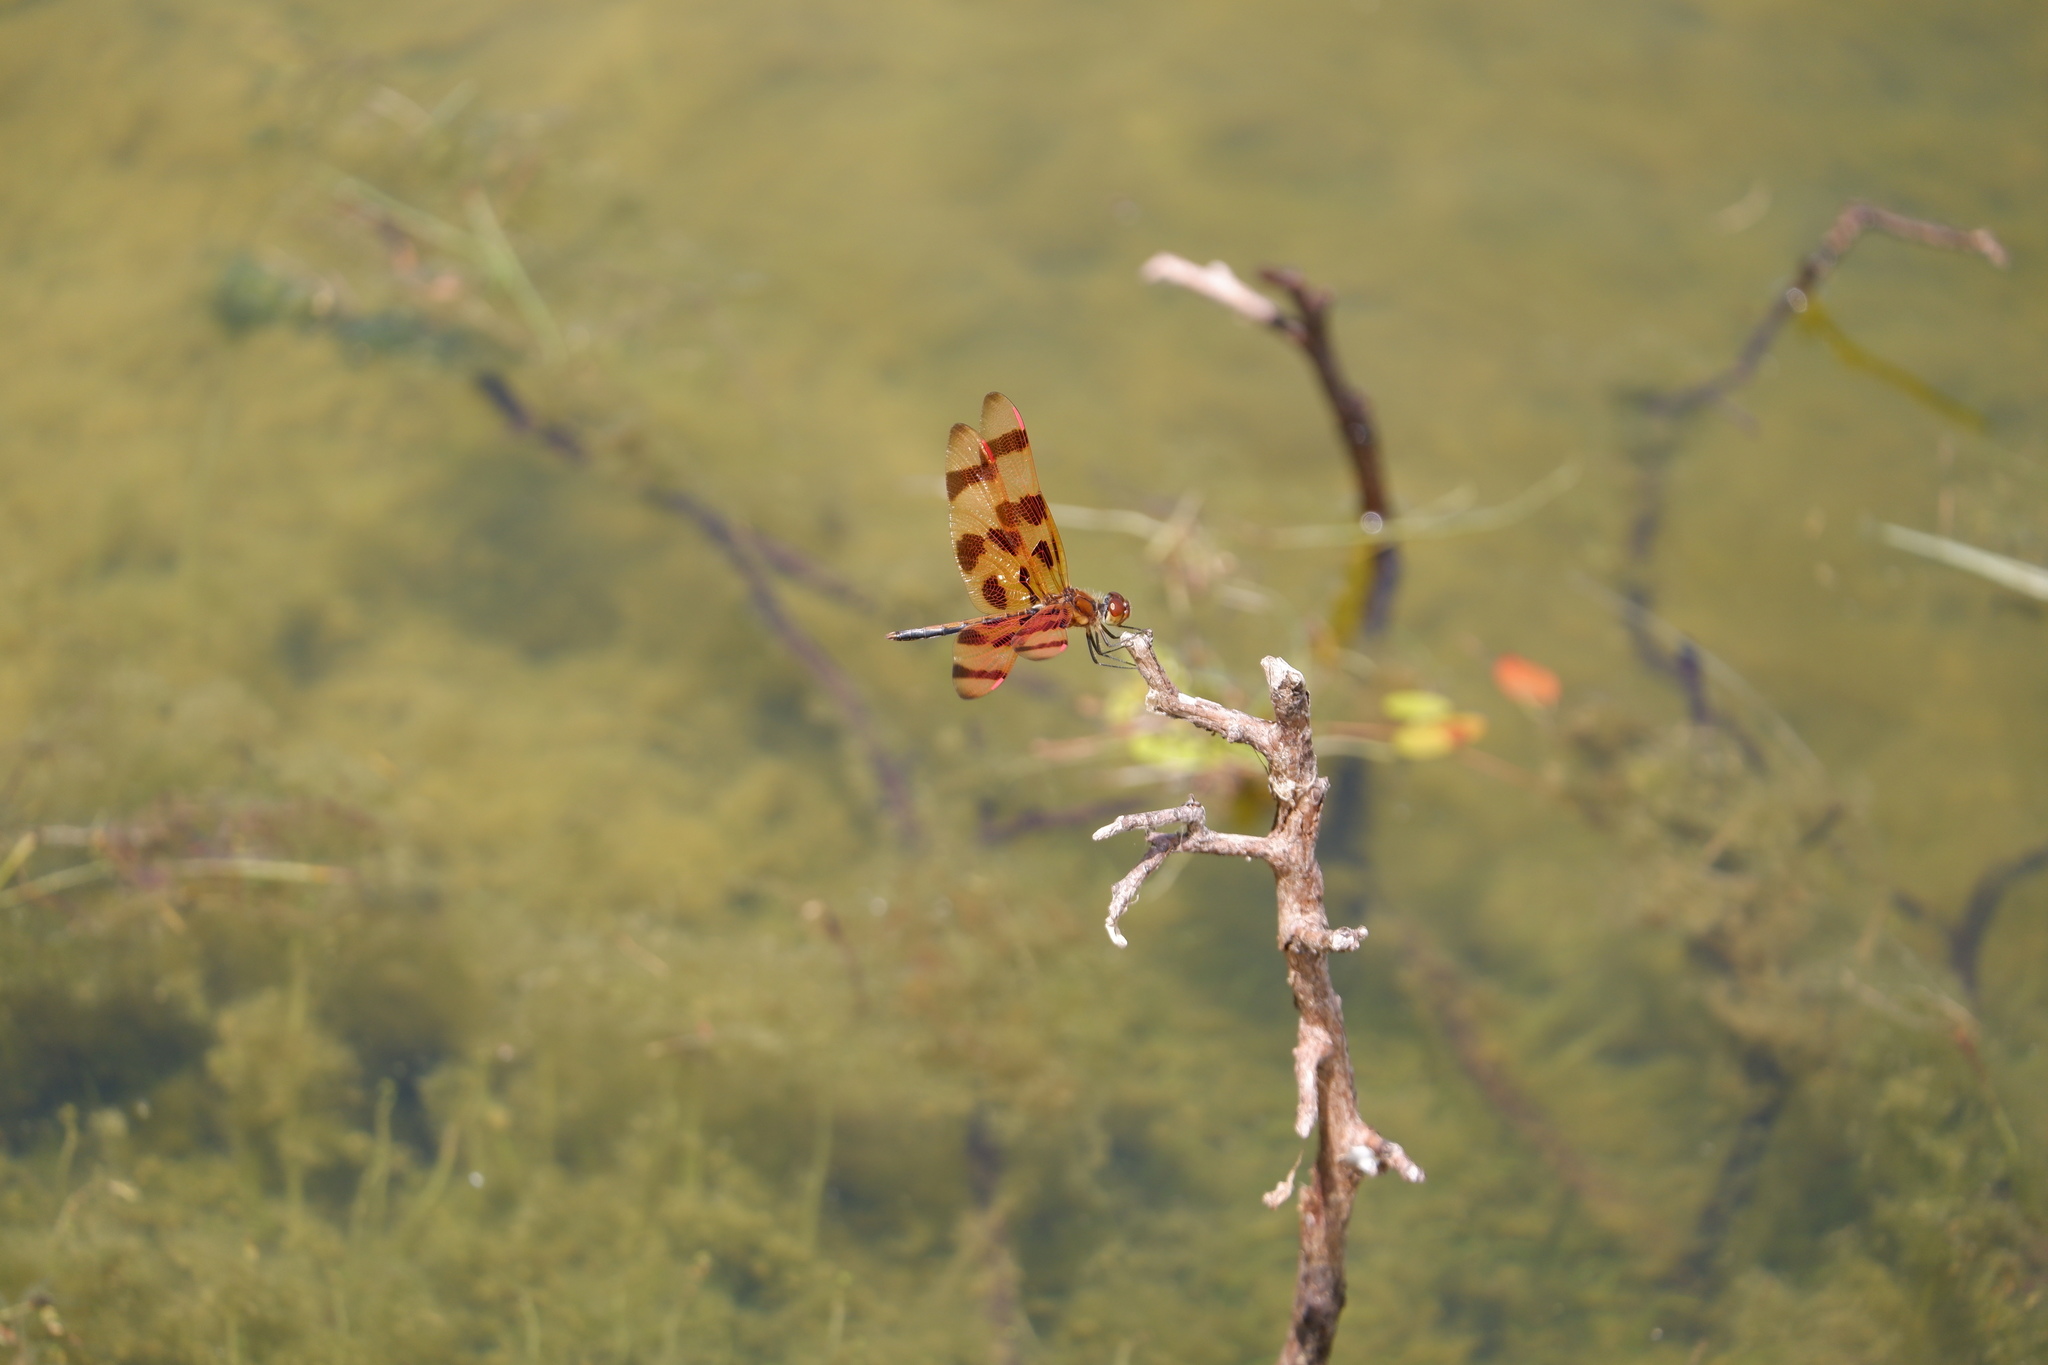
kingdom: Animalia
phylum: Arthropoda
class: Insecta
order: Odonata
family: Libellulidae
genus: Celithemis
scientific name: Celithemis eponina
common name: Halloween pennant
